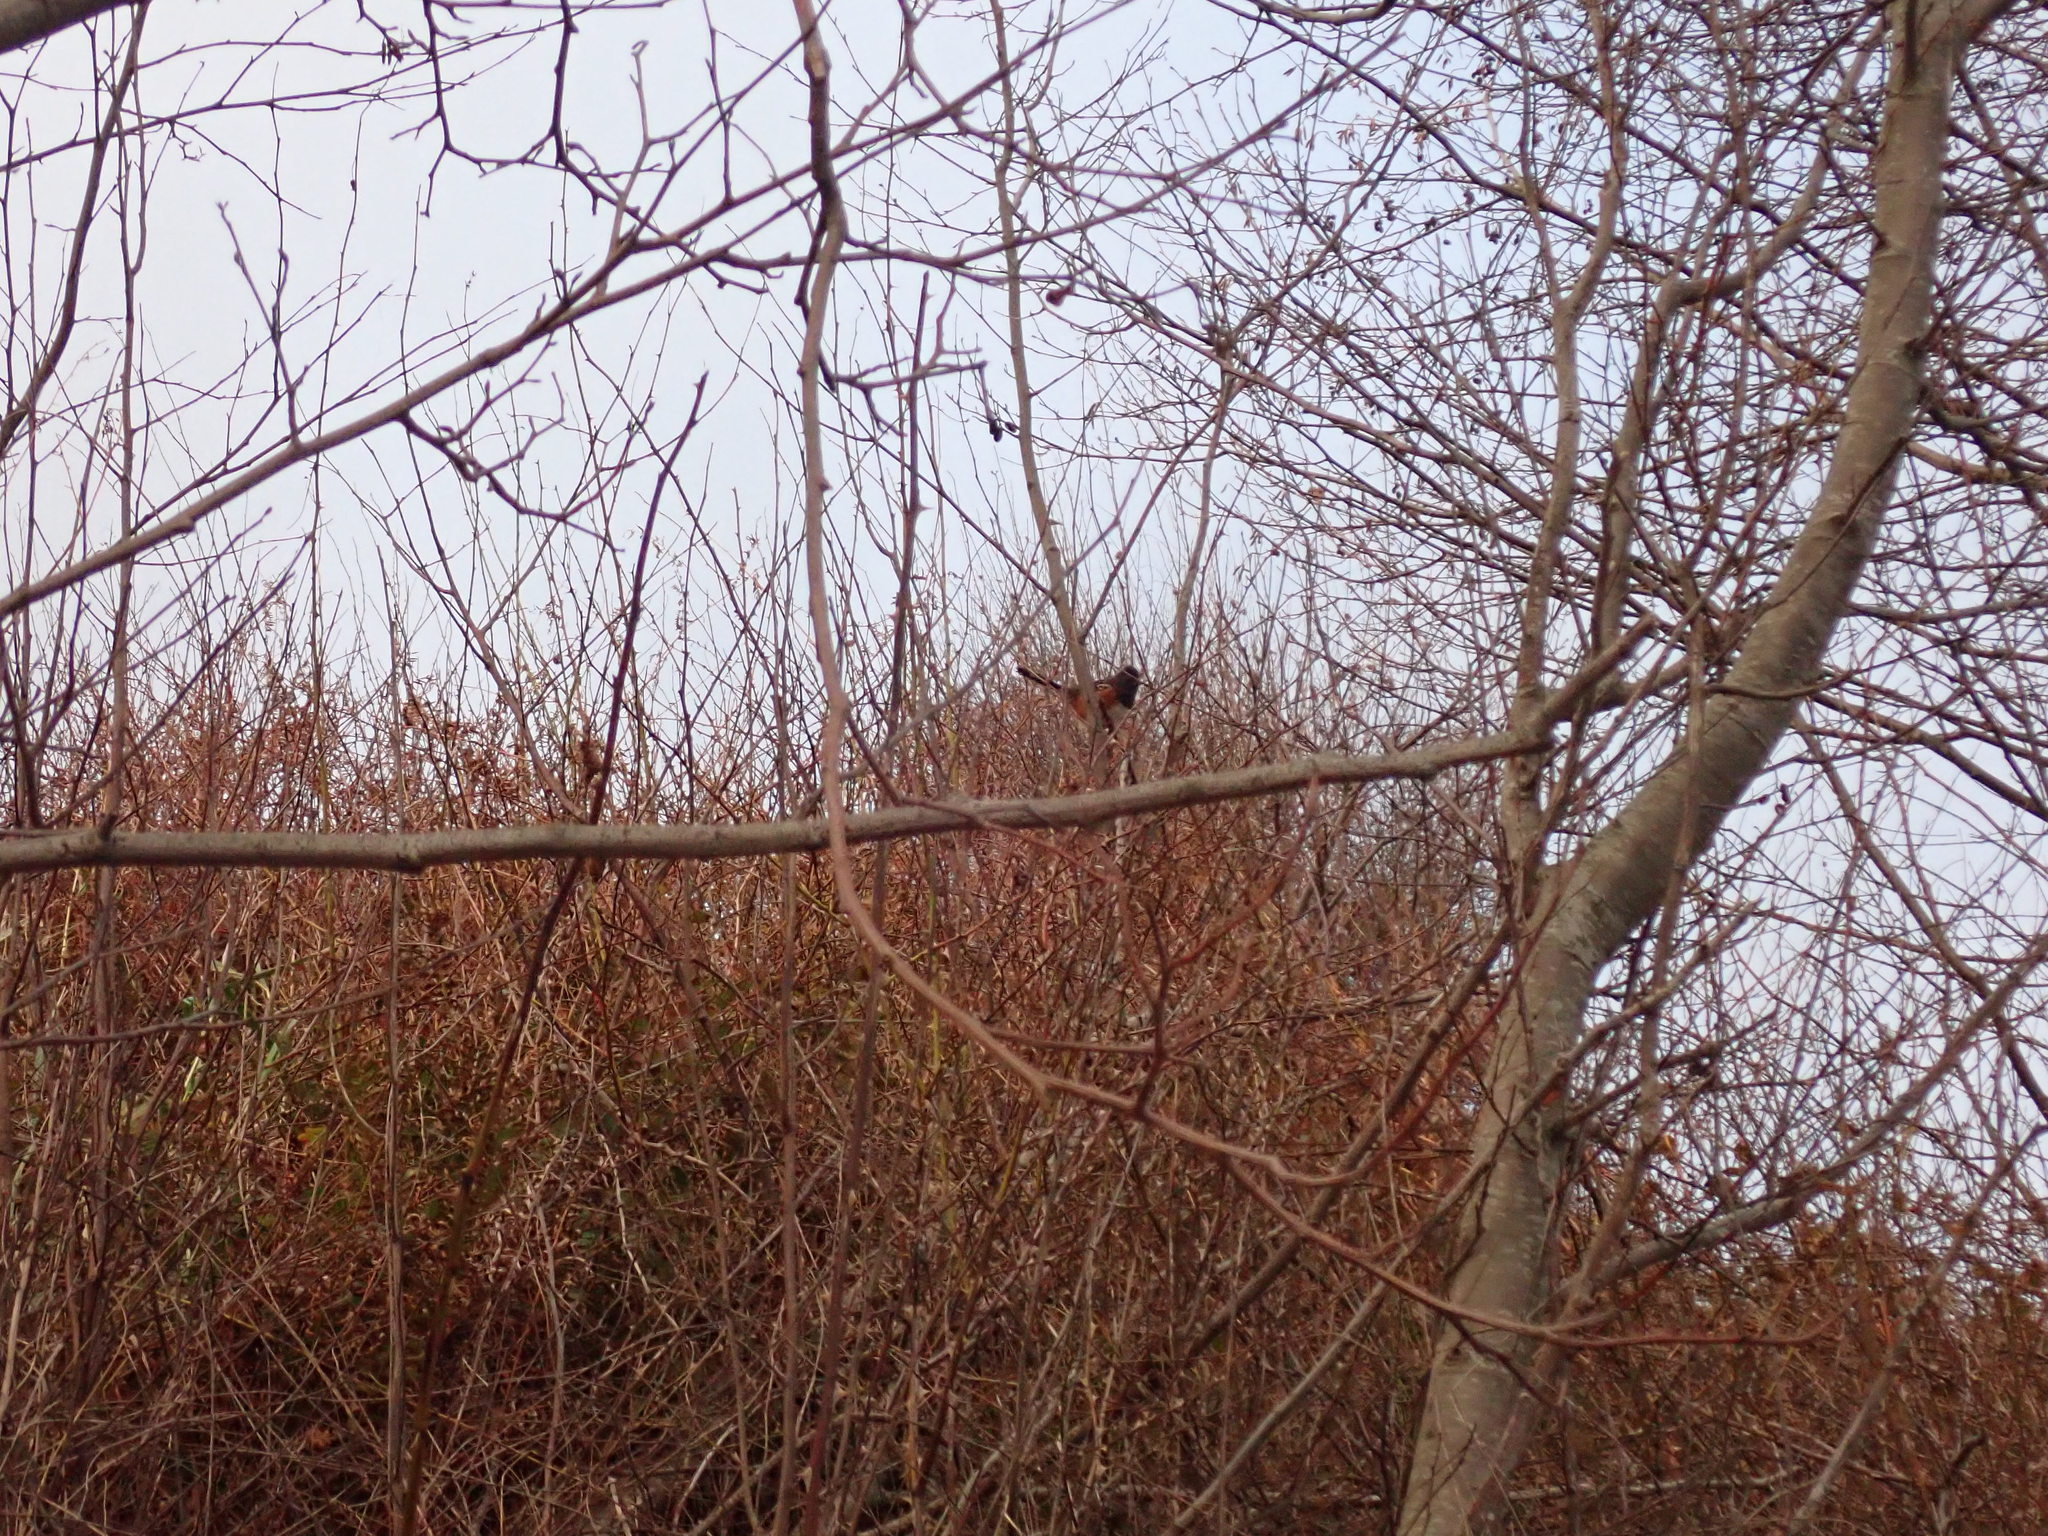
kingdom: Animalia
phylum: Chordata
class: Aves
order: Passeriformes
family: Passerellidae
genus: Pipilo
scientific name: Pipilo maculatus
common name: Spotted towhee
